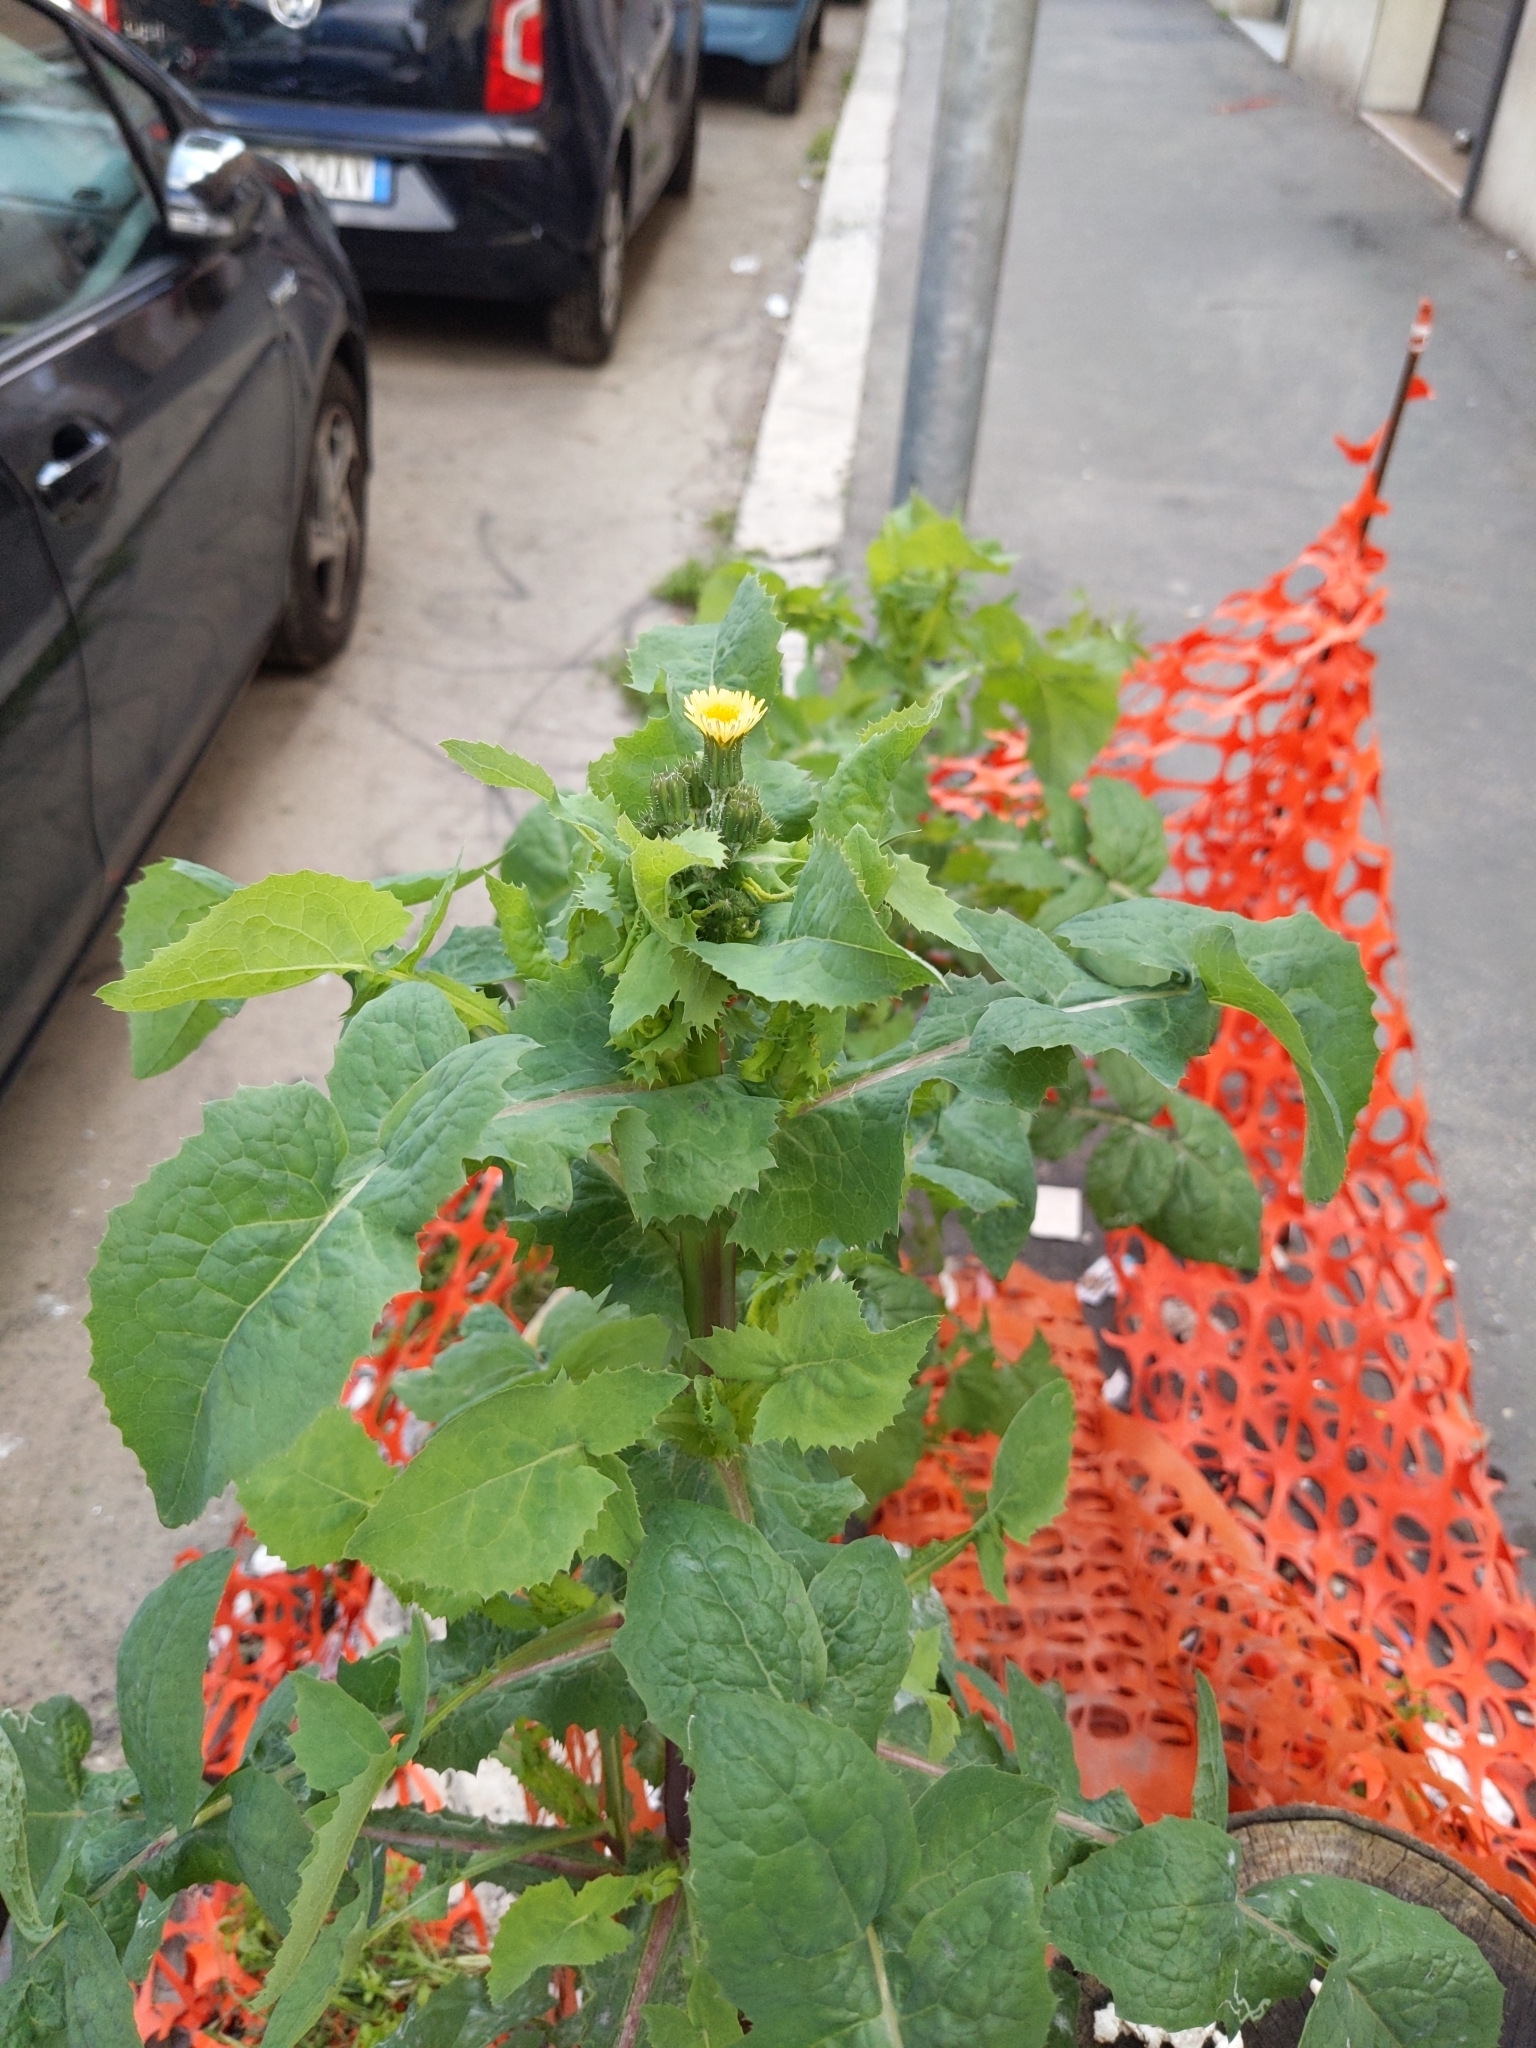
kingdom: Plantae
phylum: Tracheophyta
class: Magnoliopsida
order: Asterales
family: Asteraceae
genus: Sonchus
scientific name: Sonchus oleraceus
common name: Common sowthistle
